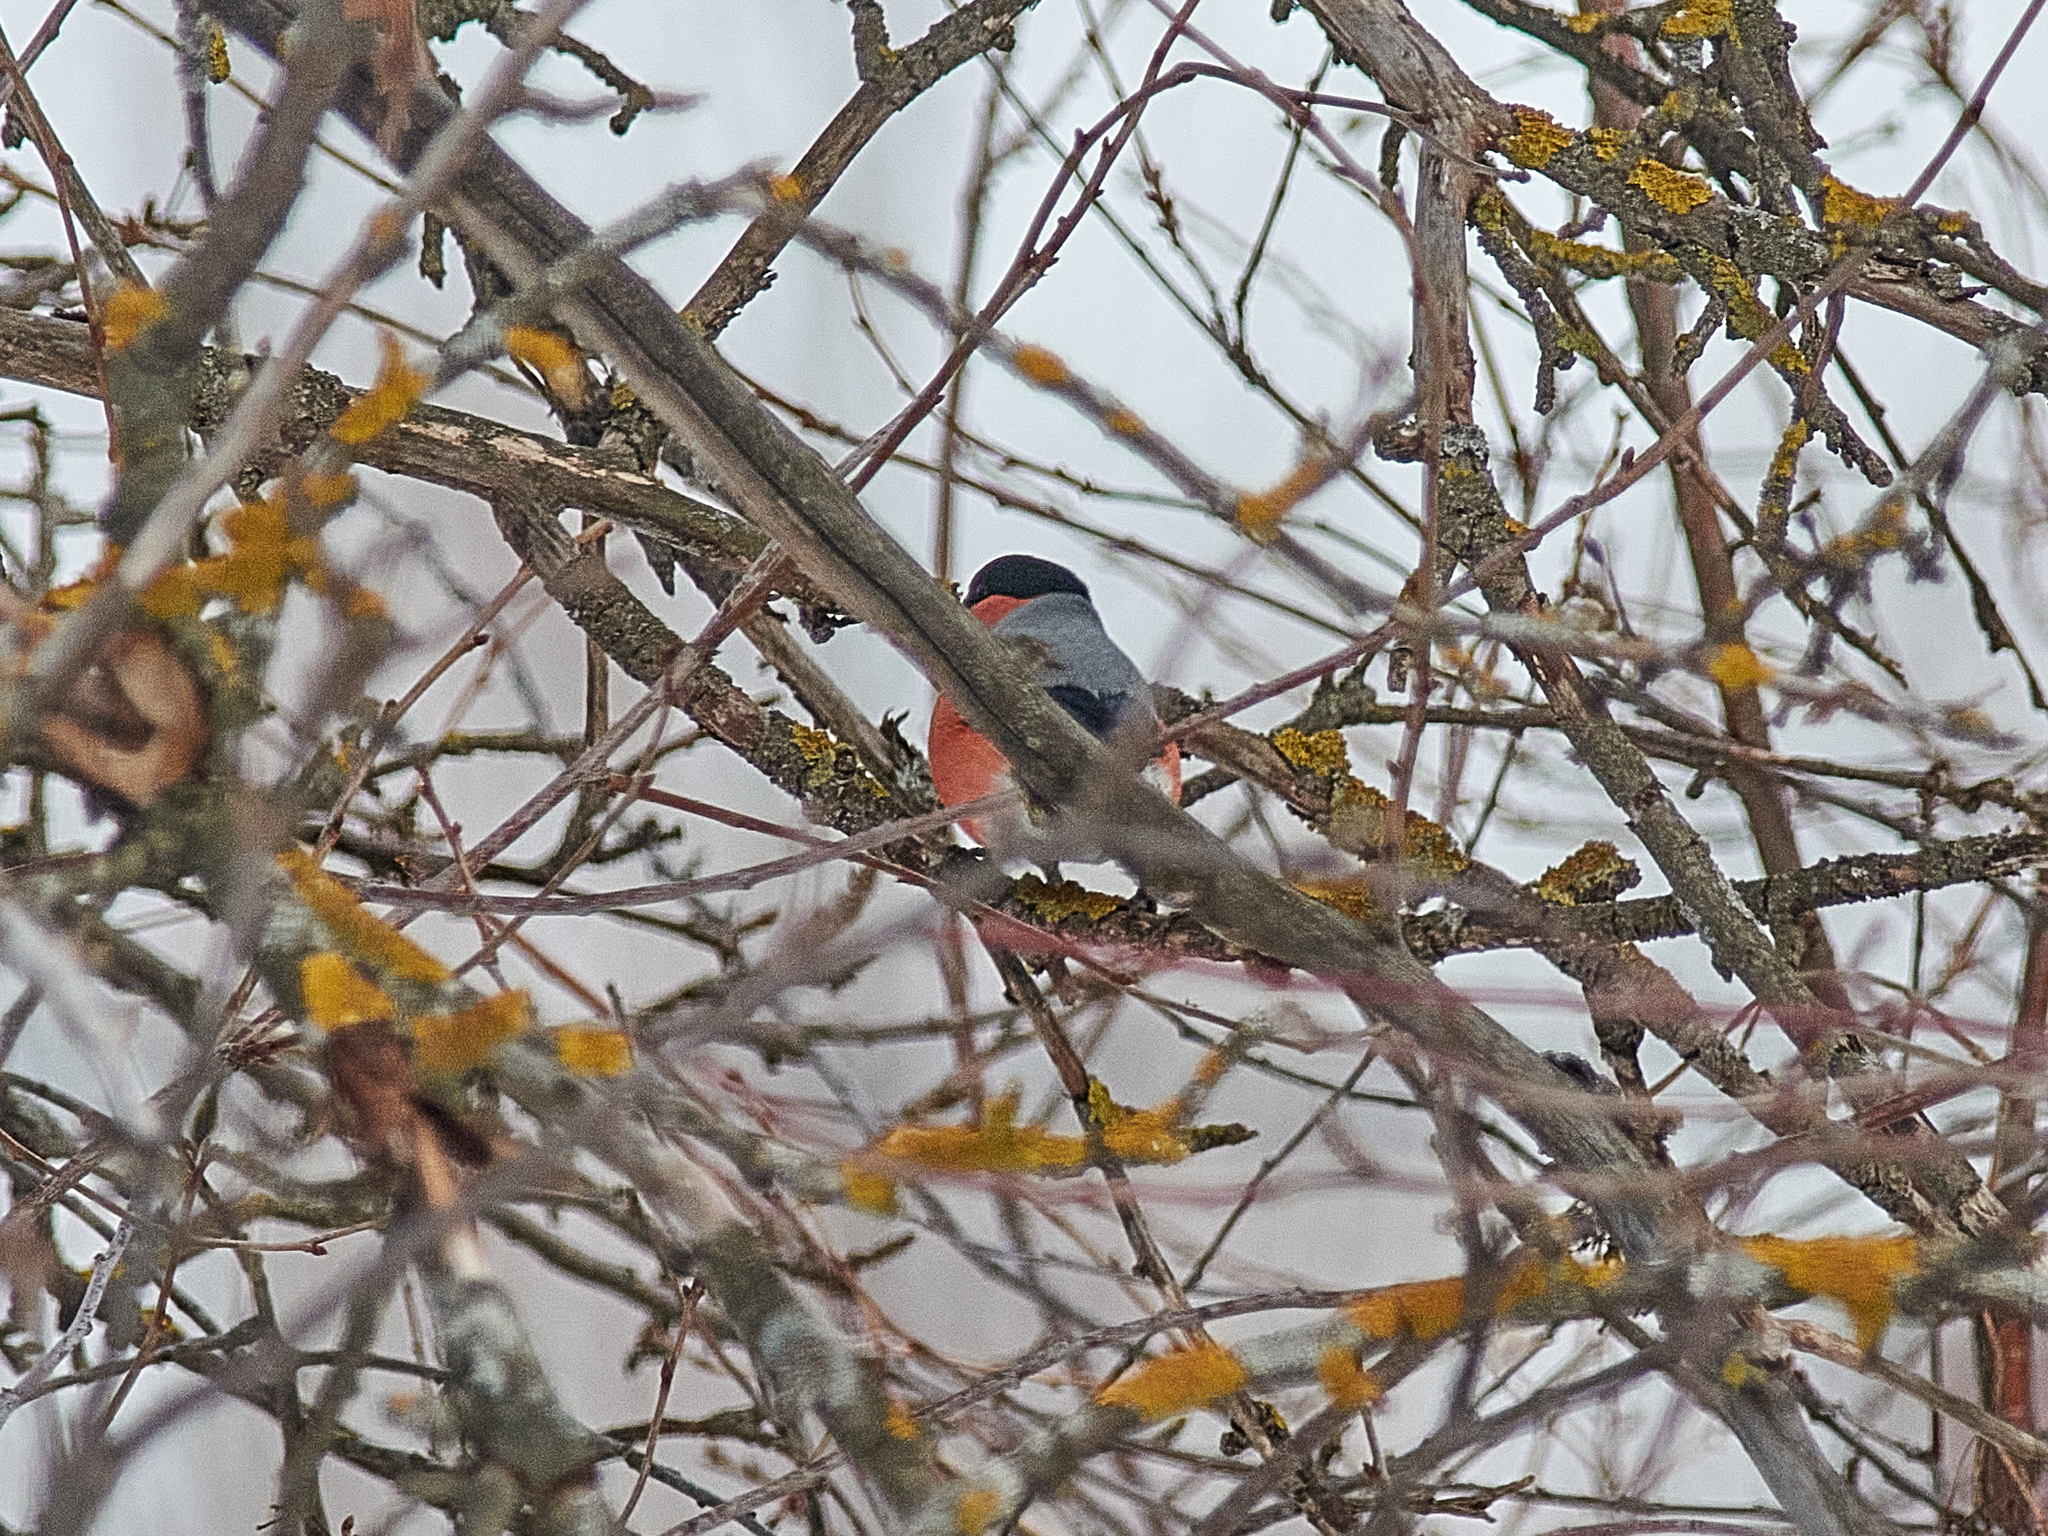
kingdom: Animalia
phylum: Chordata
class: Aves
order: Passeriformes
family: Fringillidae
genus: Pyrrhula
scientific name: Pyrrhula pyrrhula
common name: Eurasian bullfinch
